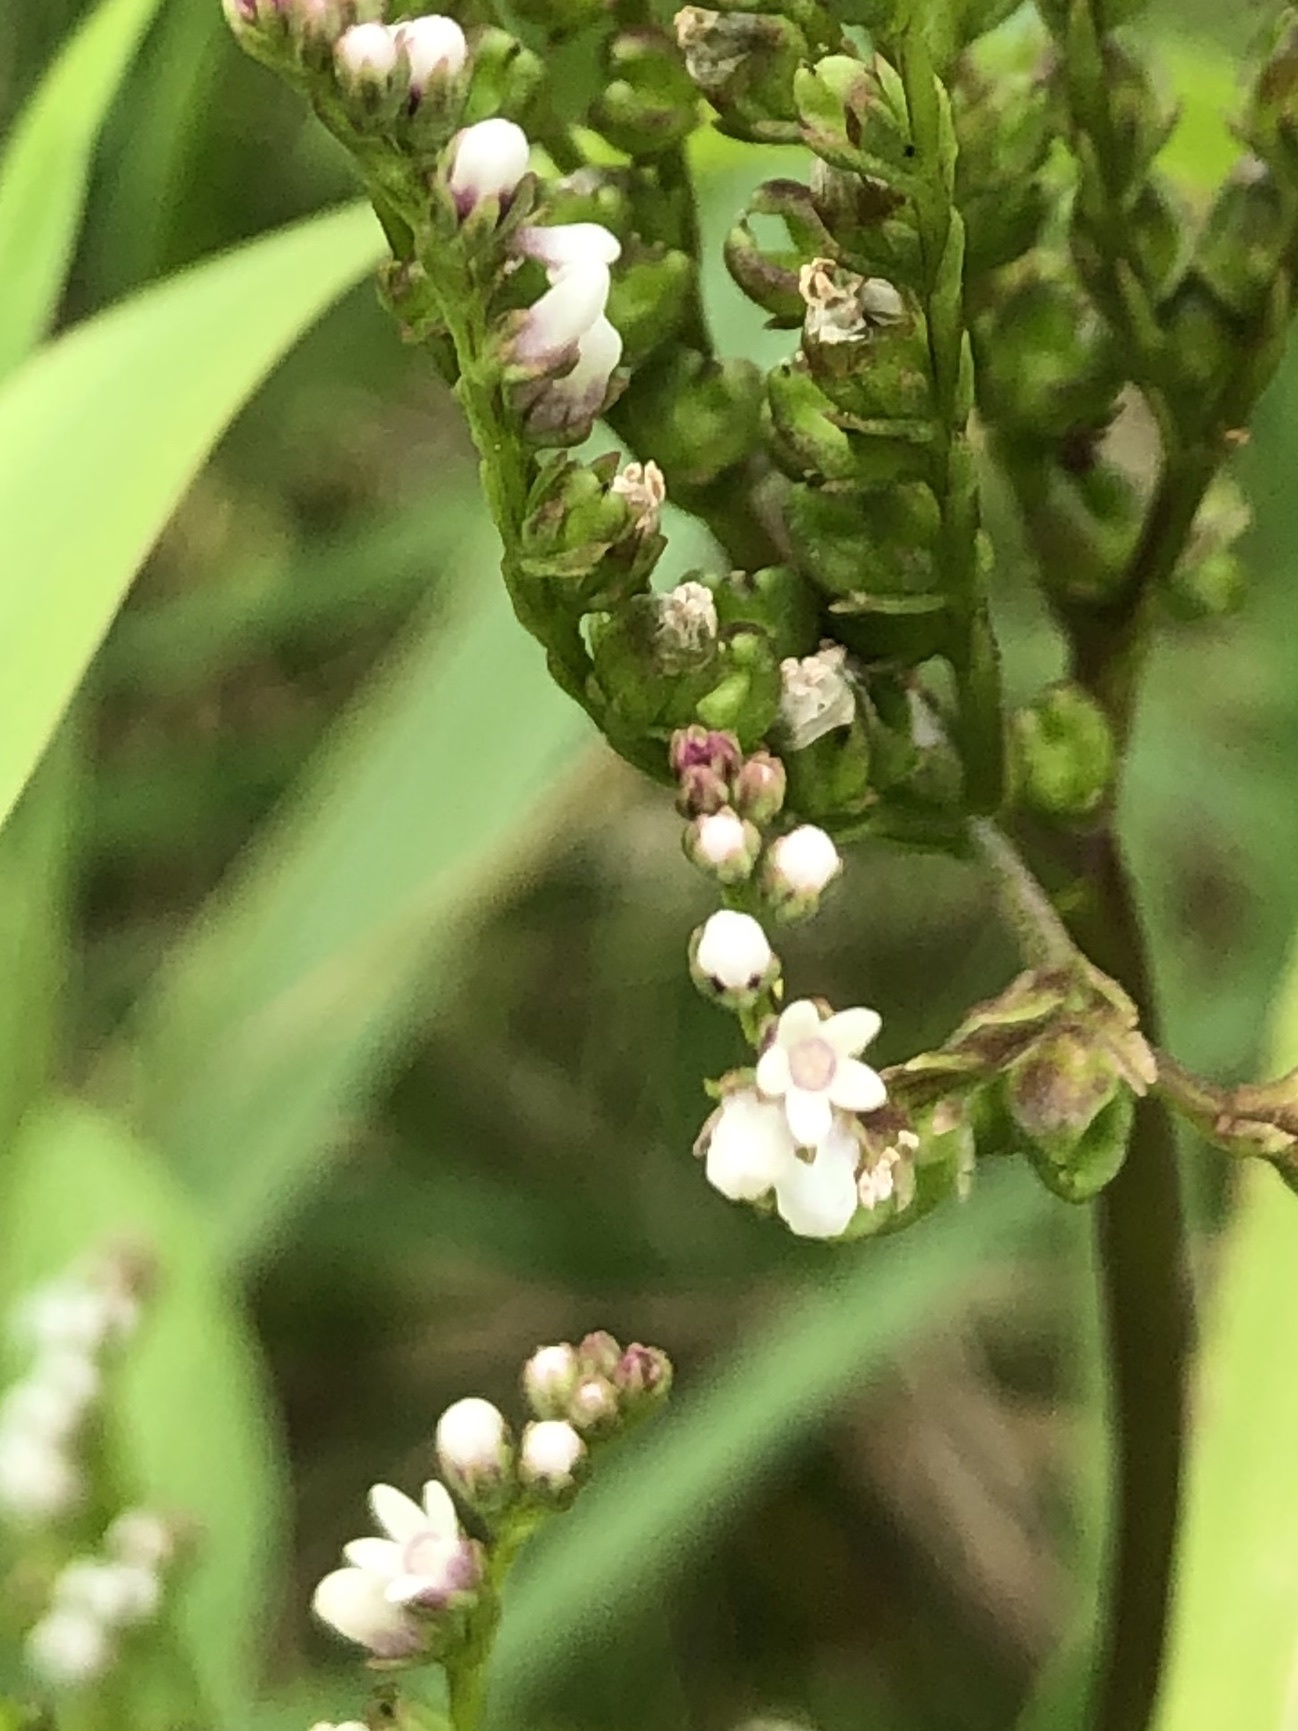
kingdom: Plantae
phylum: Tracheophyta
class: Magnoliopsida
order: Gentianales
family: Loganiaceae
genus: Mitreola
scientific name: Mitreola petiolata
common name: Lax hornpod
